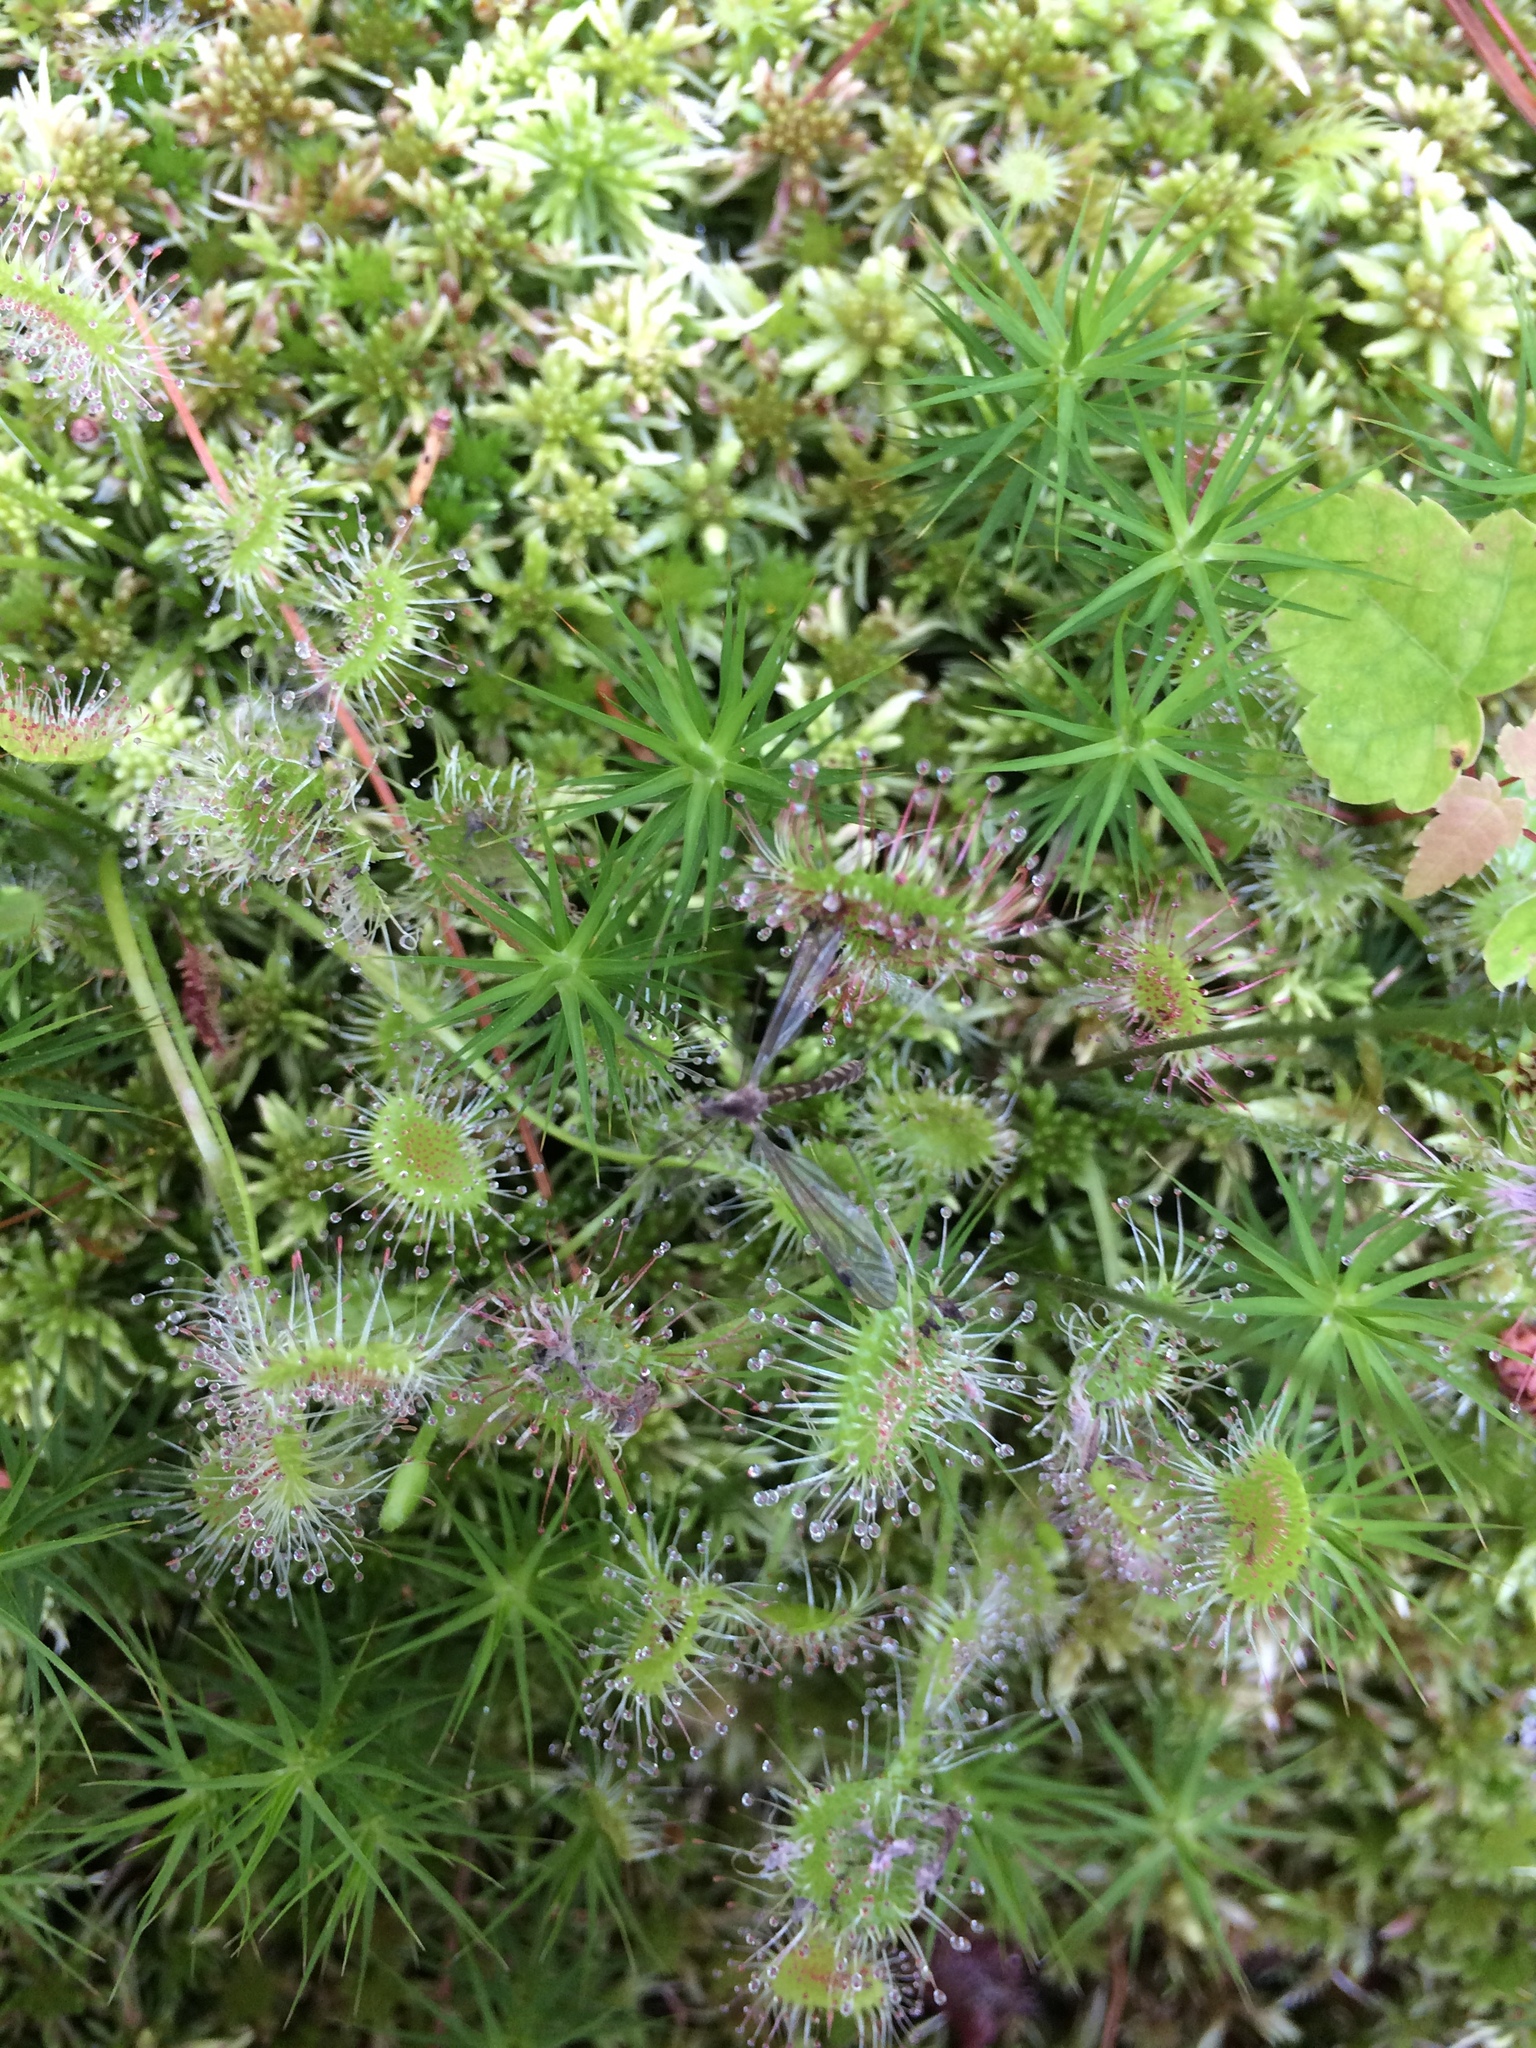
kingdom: Plantae
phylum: Tracheophyta
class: Magnoliopsida
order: Caryophyllales
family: Droseraceae
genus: Drosera
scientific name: Drosera rotundifolia
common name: Round-leaved sundew
